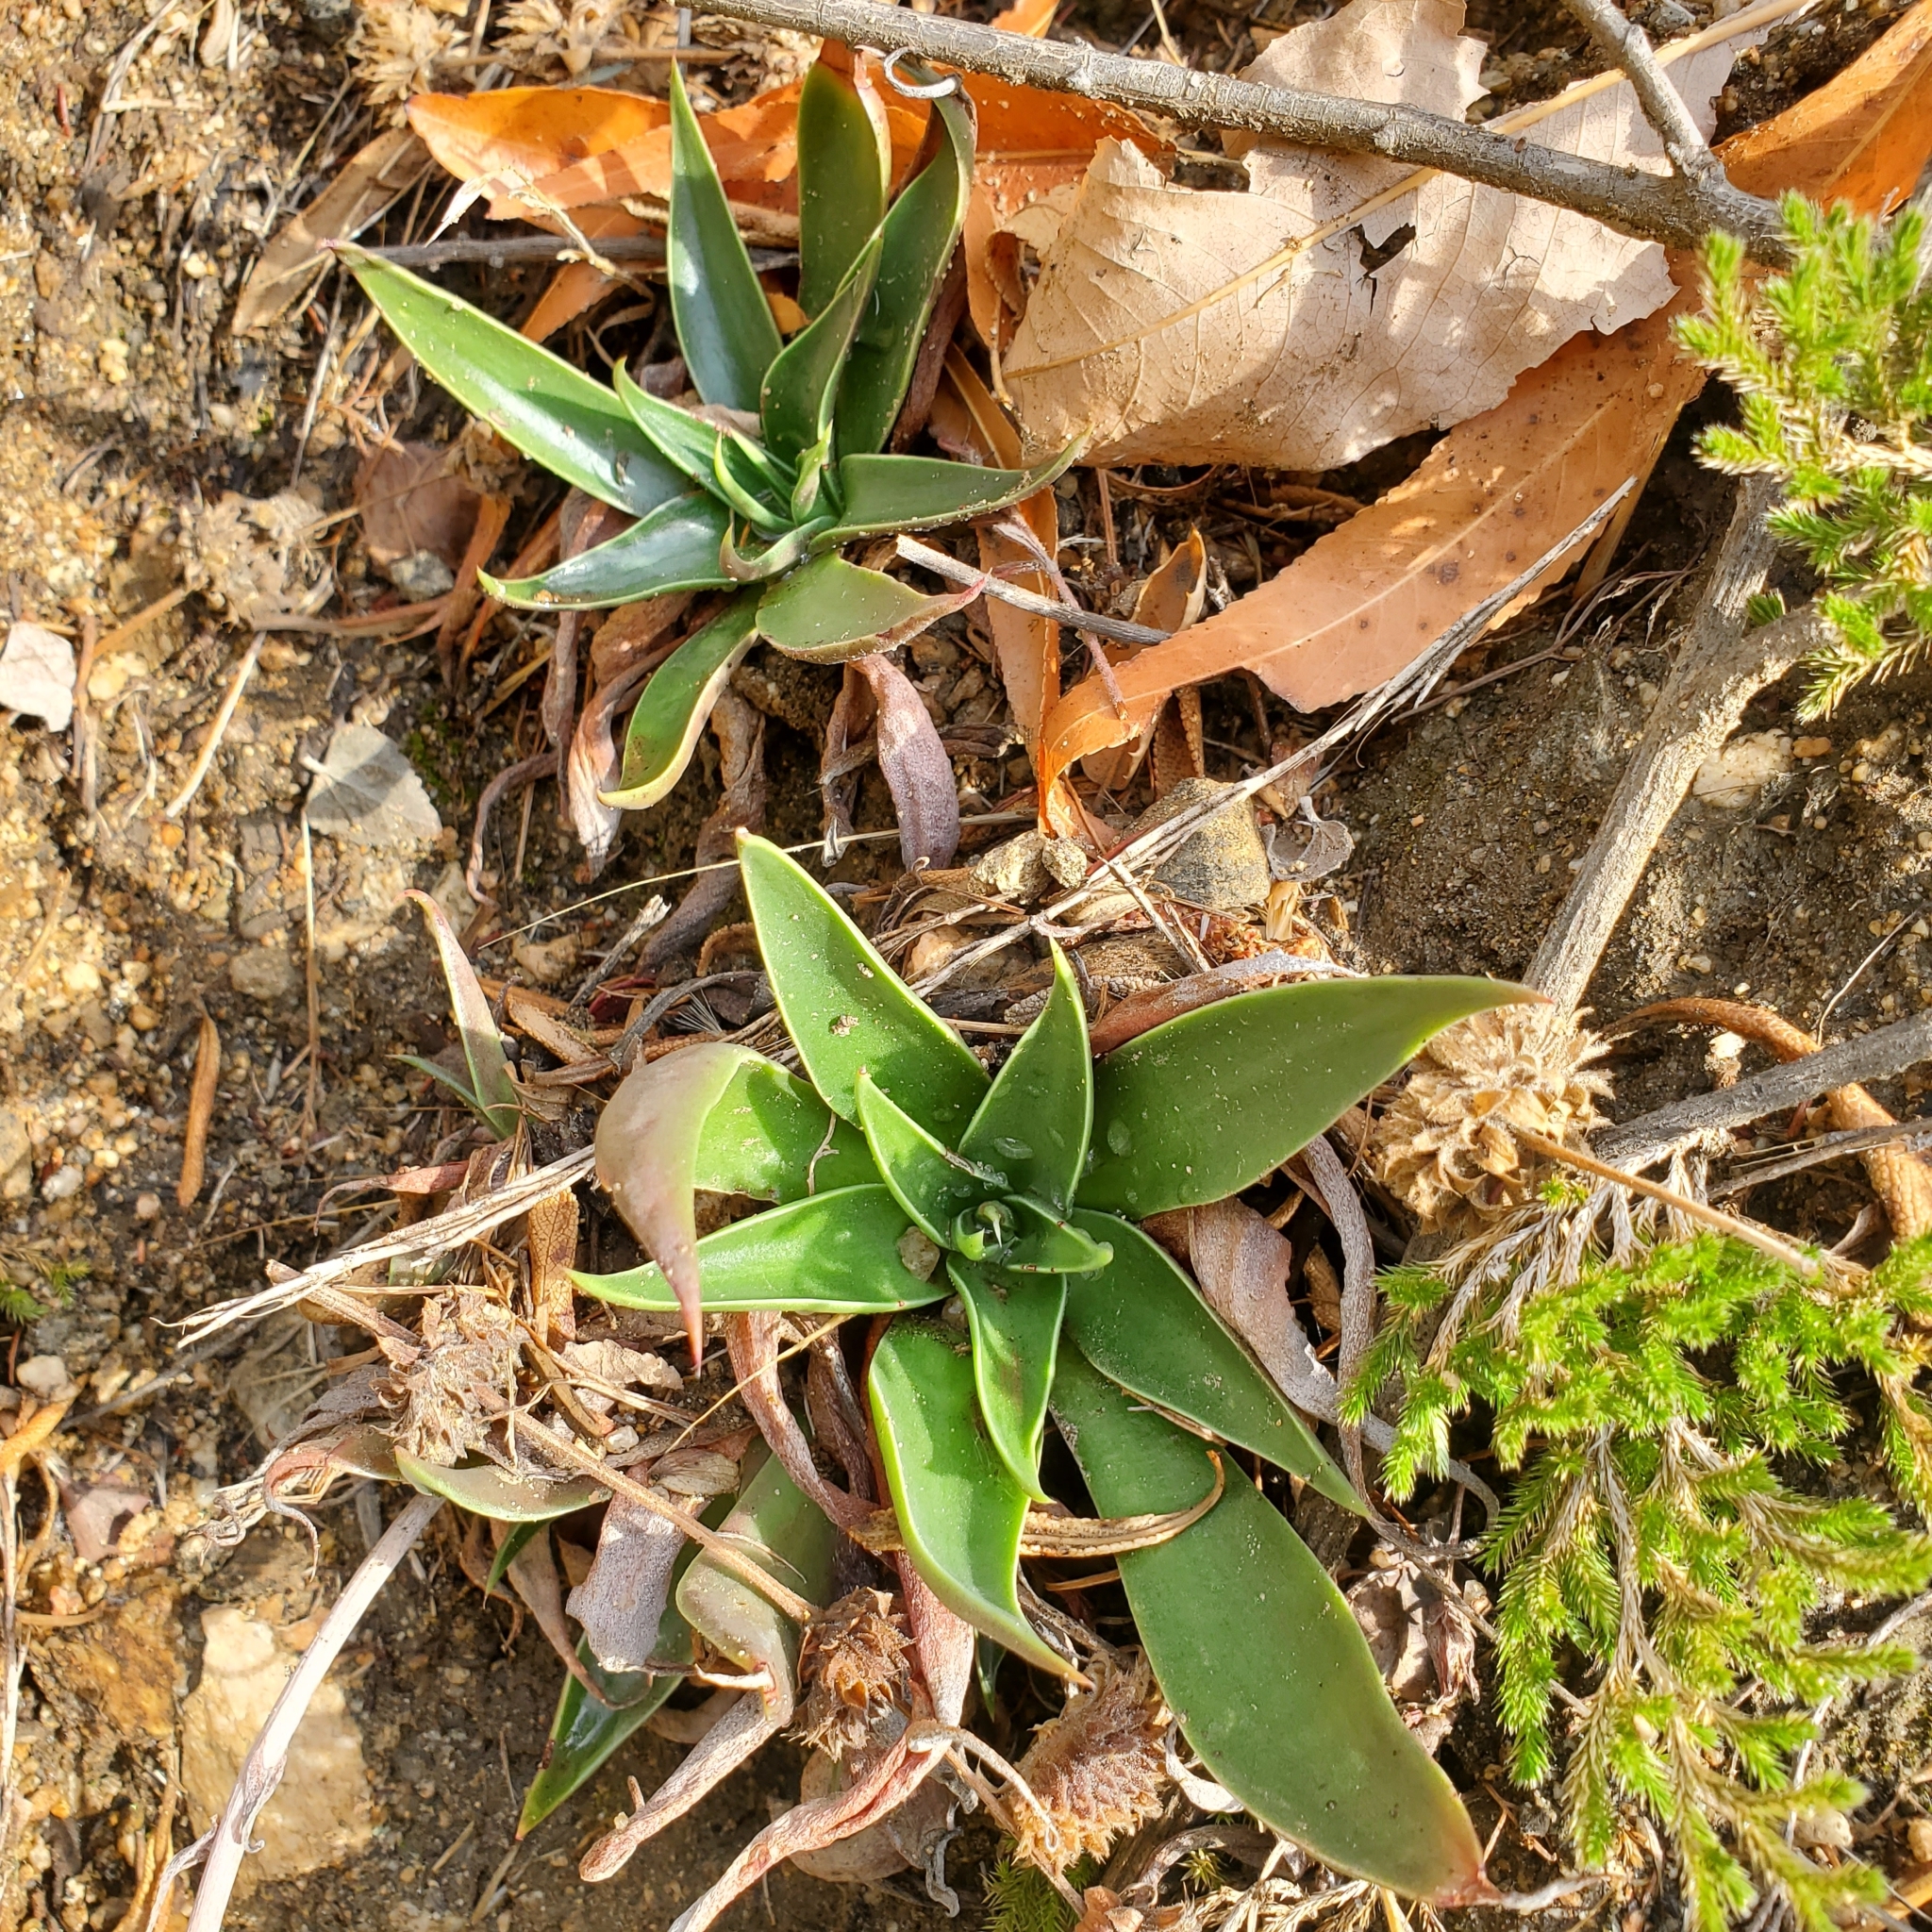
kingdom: Plantae
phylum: Tracheophyta
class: Magnoliopsida
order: Saxifragales
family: Crassulaceae
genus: Dudleya
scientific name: Dudleya lanceolata
